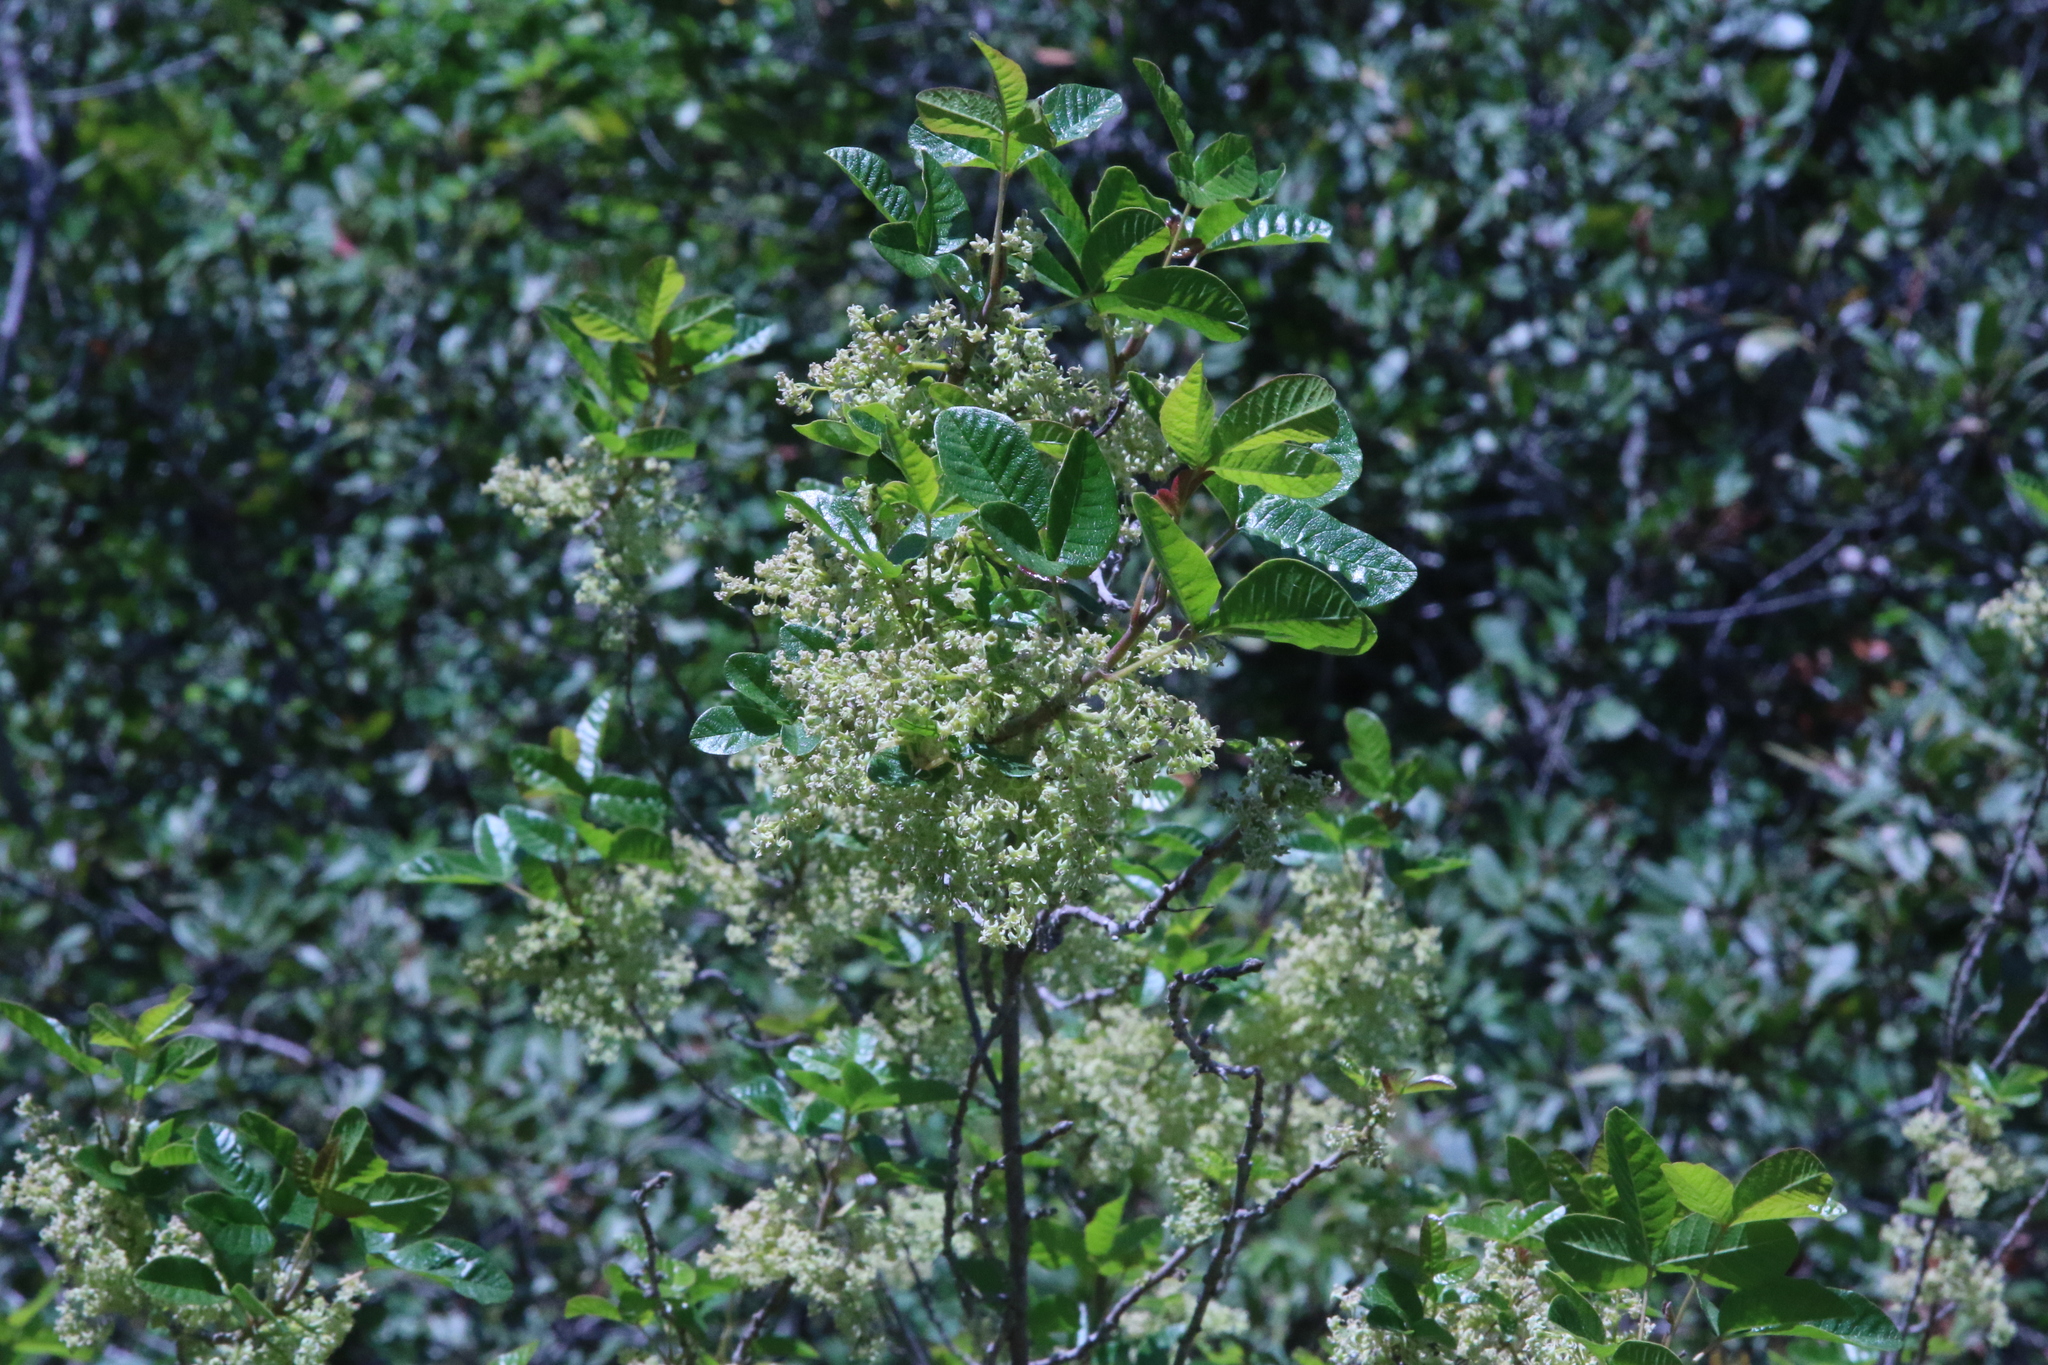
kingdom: Plantae
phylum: Tracheophyta
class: Magnoliopsida
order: Sapindales
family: Anacardiaceae
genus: Toxicodendron
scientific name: Toxicodendron diversilobum
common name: Pacific poison-oak
